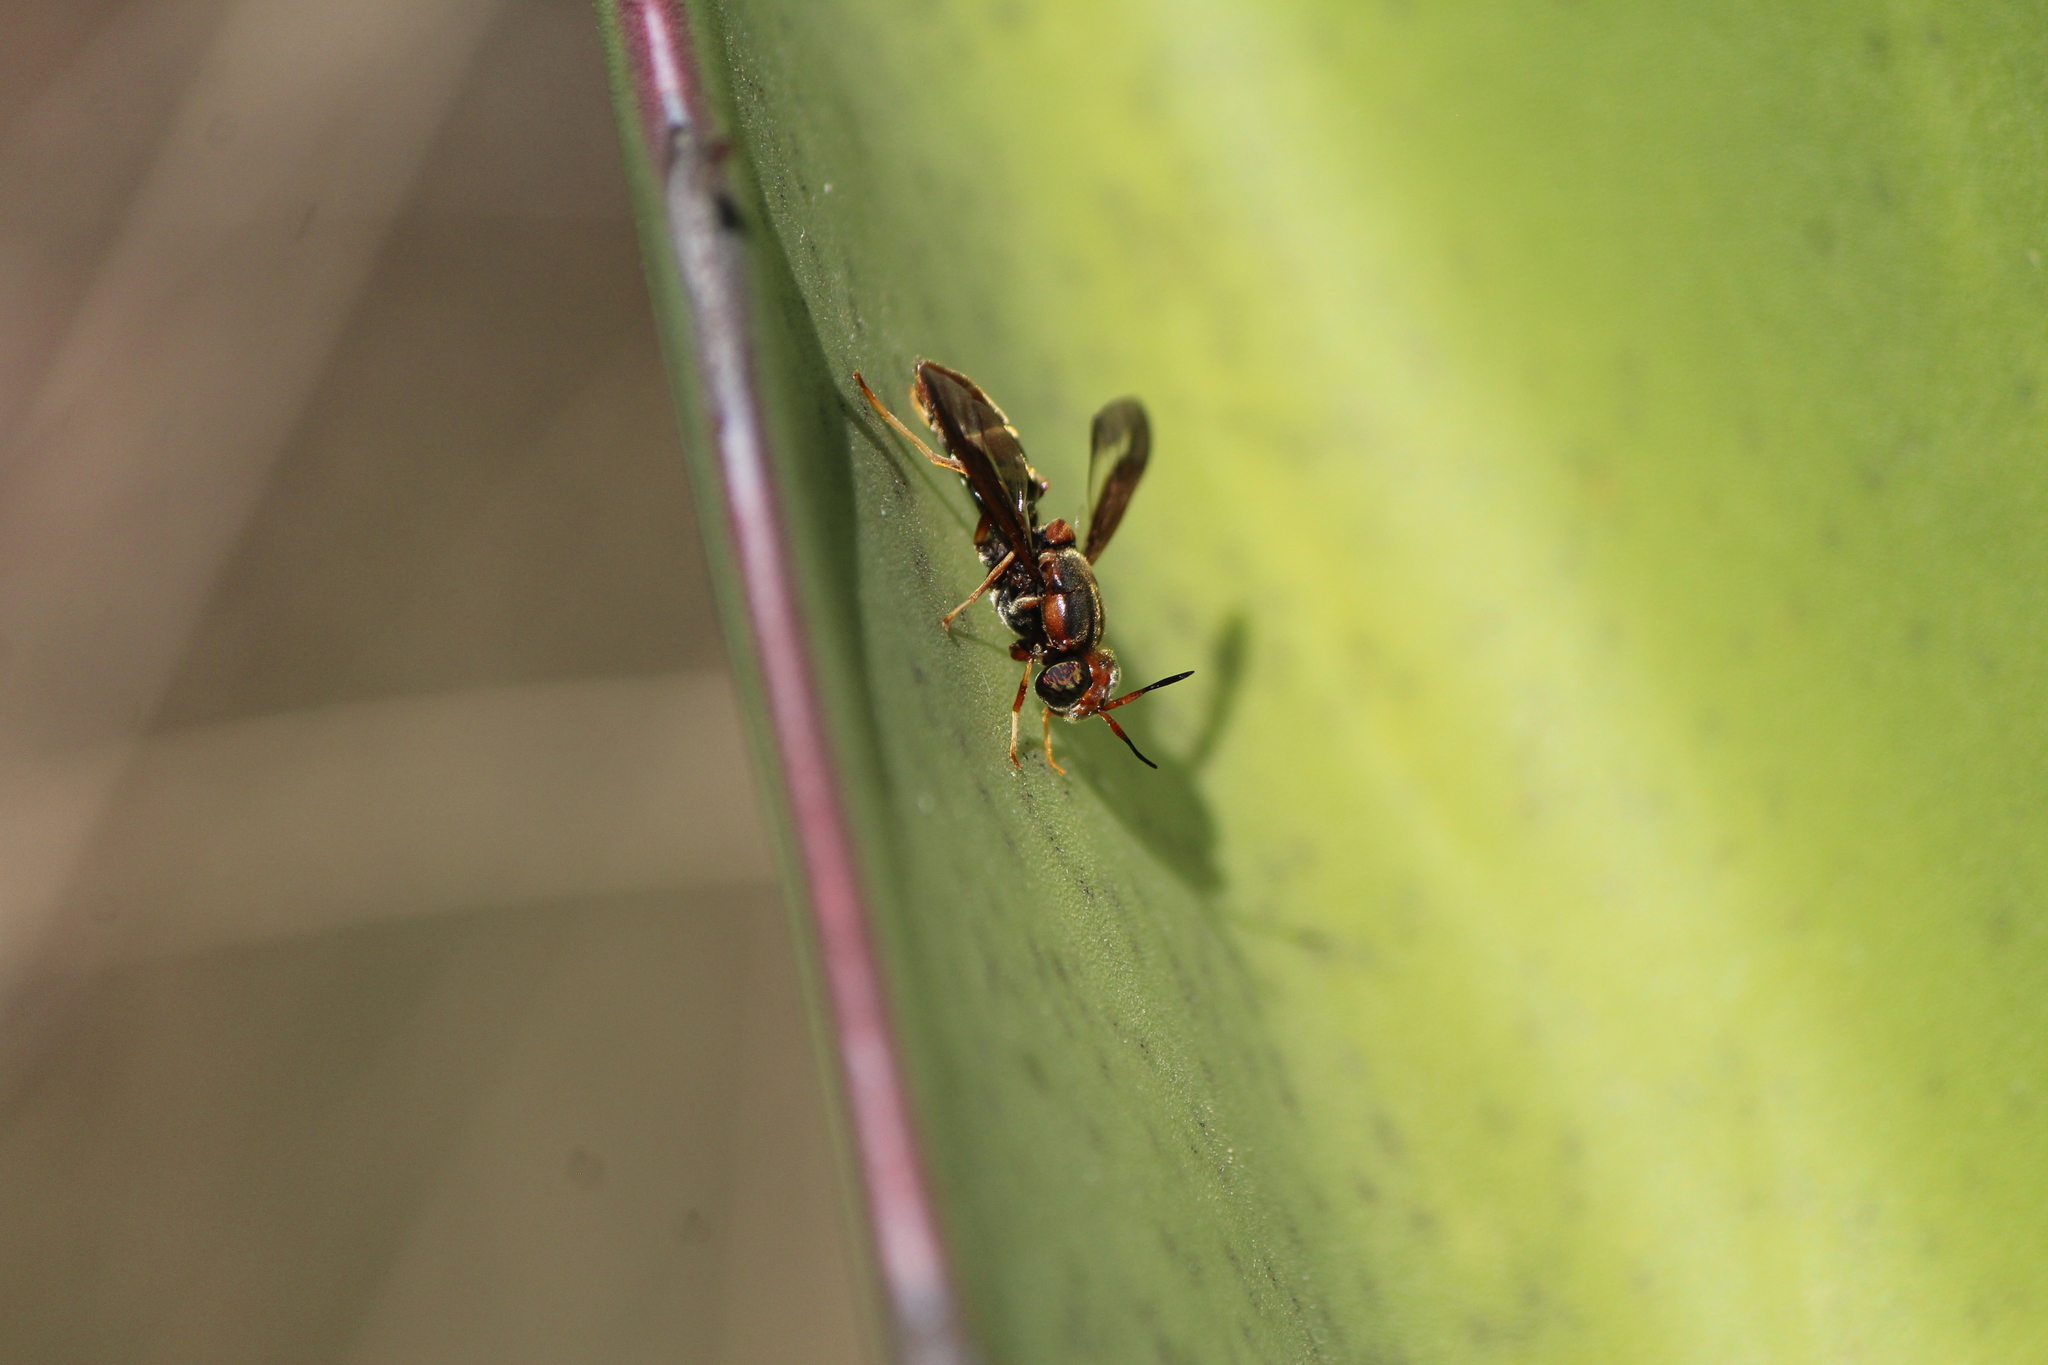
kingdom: Animalia
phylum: Arthropoda
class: Insecta
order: Diptera
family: Stratiomyidae
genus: Hermetia
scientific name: Hermetia comstocki
